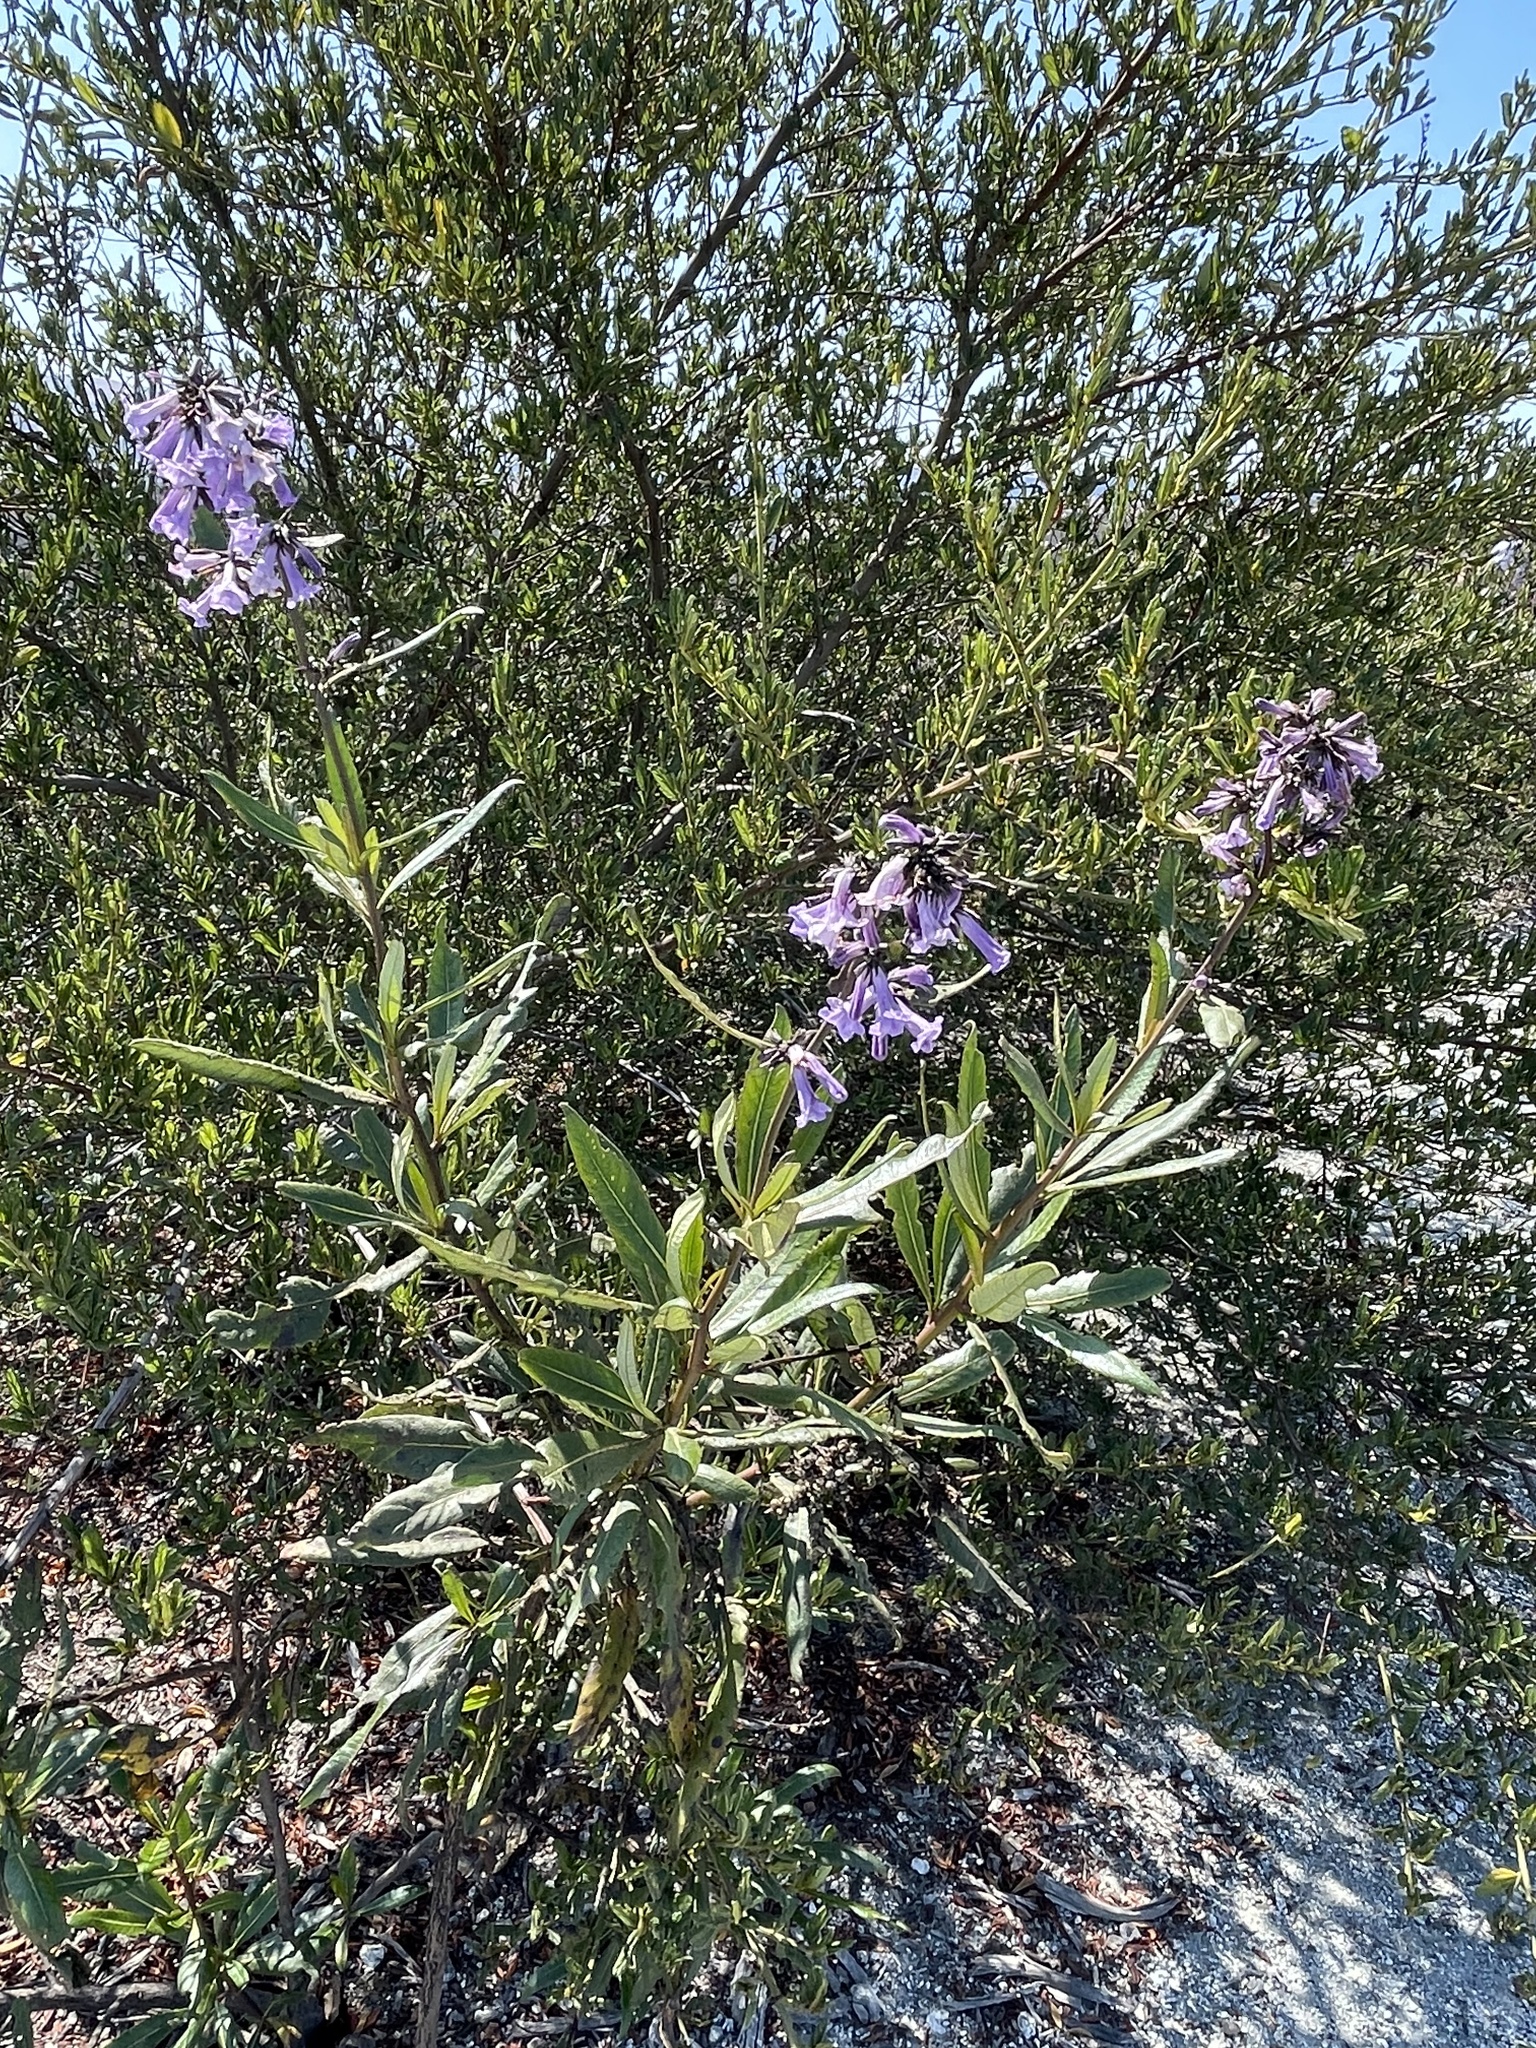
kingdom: Plantae
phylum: Tracheophyta
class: Magnoliopsida
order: Boraginales
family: Namaceae
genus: Eriodictyon
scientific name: Eriodictyon californicum
